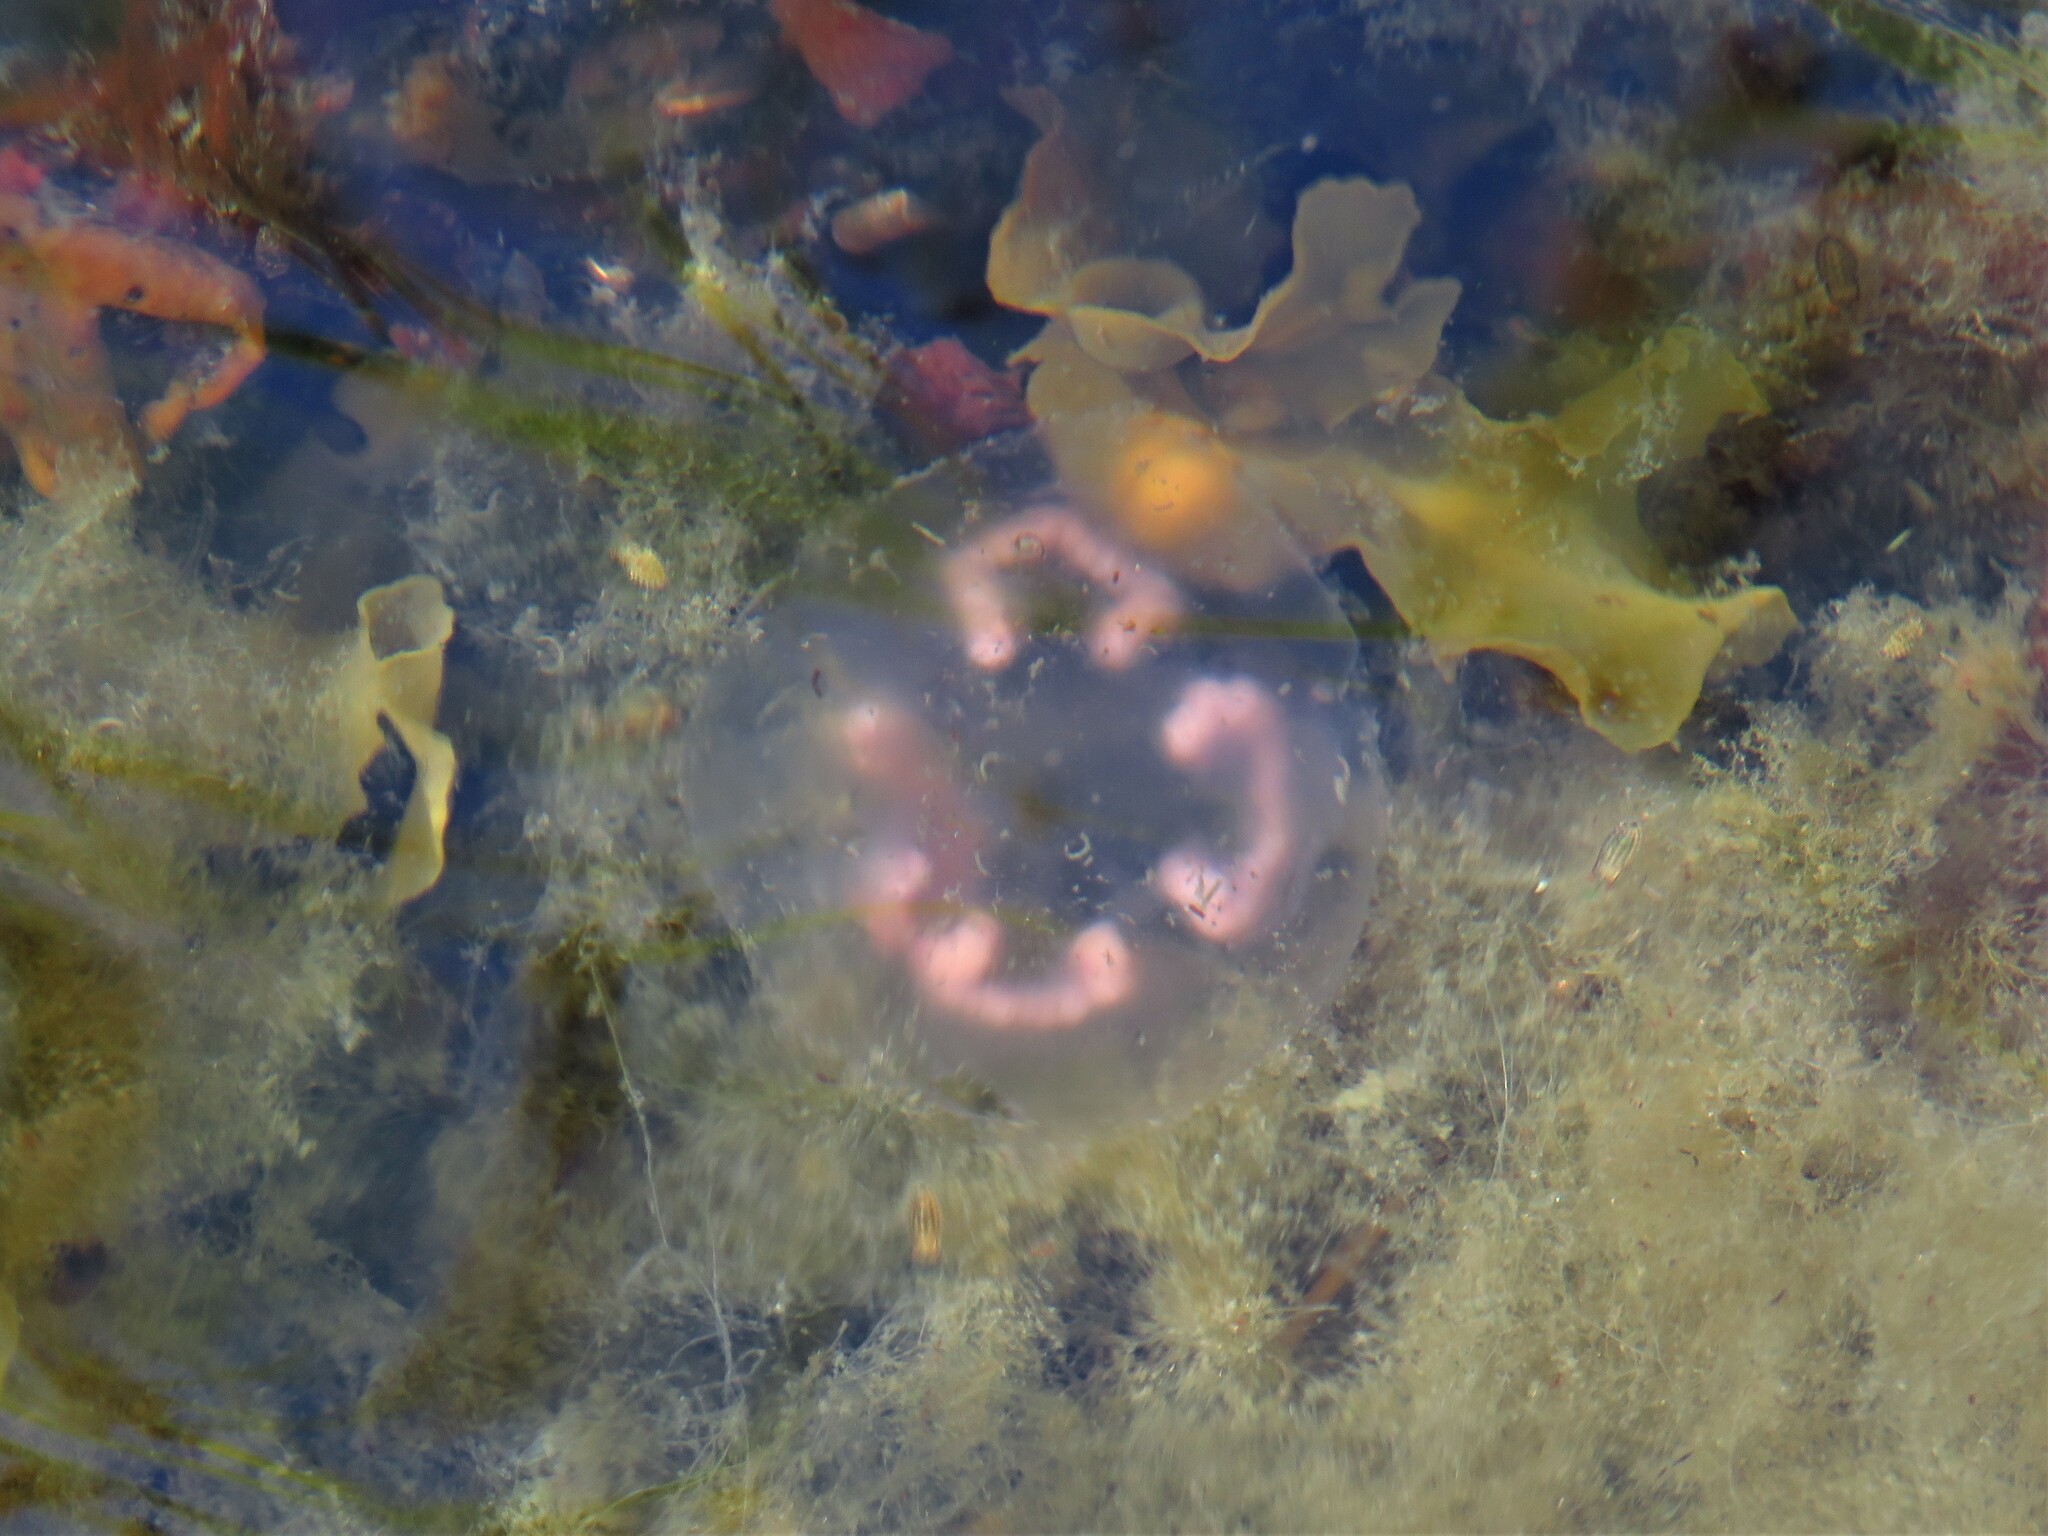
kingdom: Animalia
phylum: Cnidaria
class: Scyphozoa
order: Semaeostomeae
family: Ulmaridae
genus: Aurelia
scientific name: Aurelia aurita
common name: Moon jellyfish
